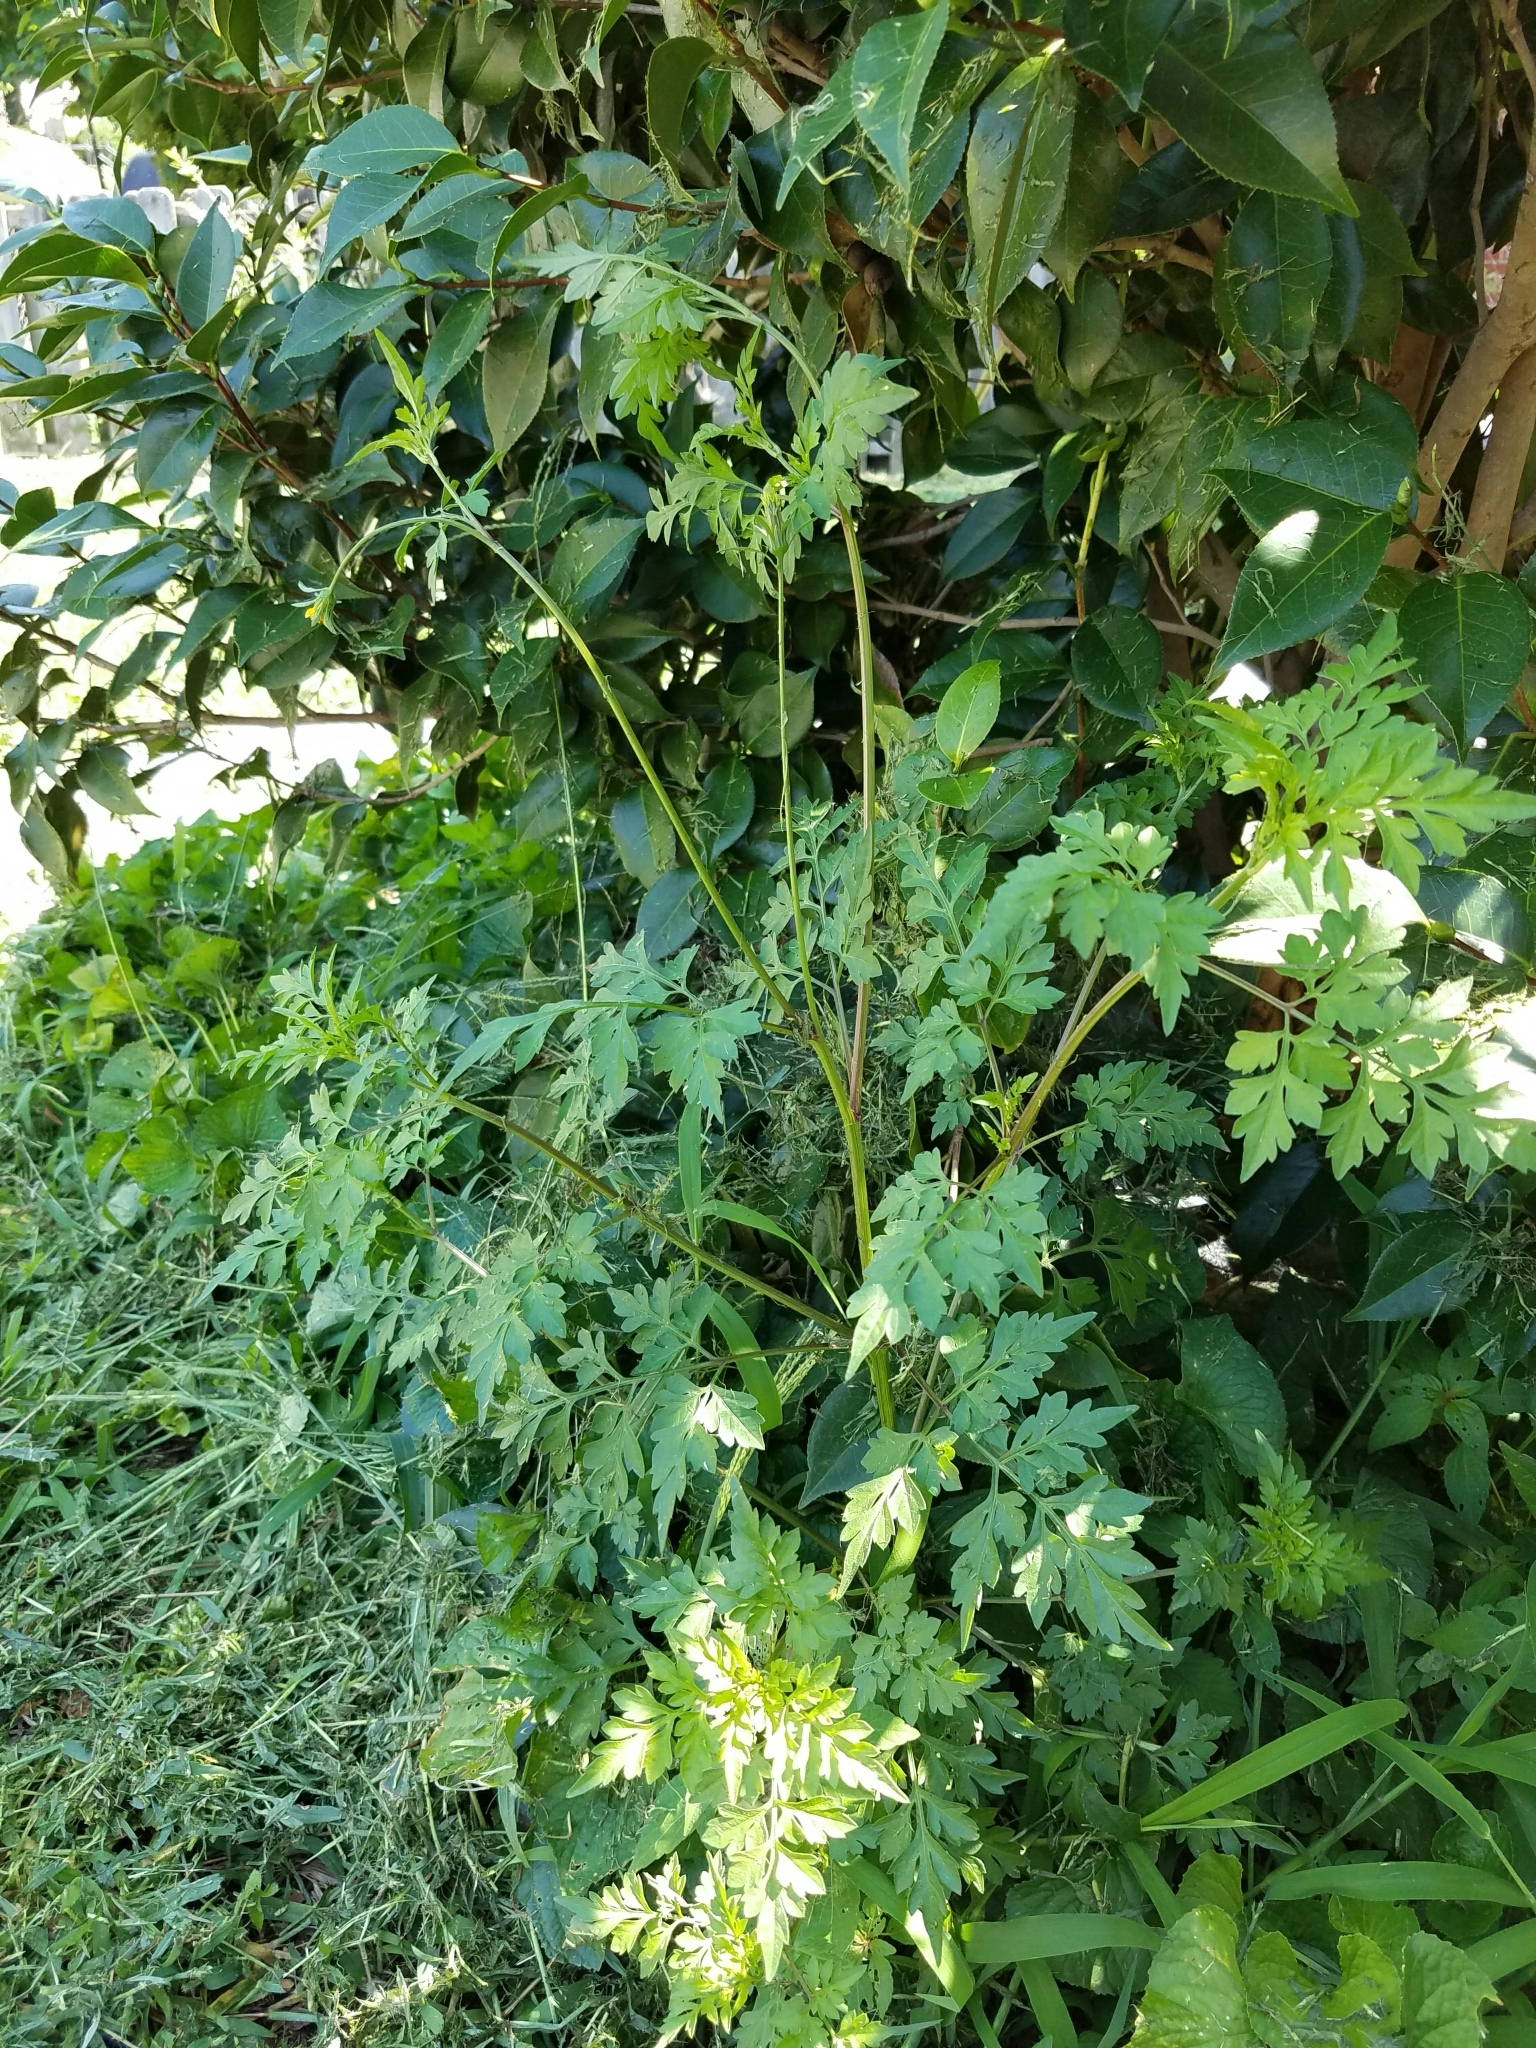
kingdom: Plantae
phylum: Tracheophyta
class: Magnoliopsida
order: Asterales
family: Asteraceae
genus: Bidens
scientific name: Bidens bipinnata
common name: Spanish-needles
